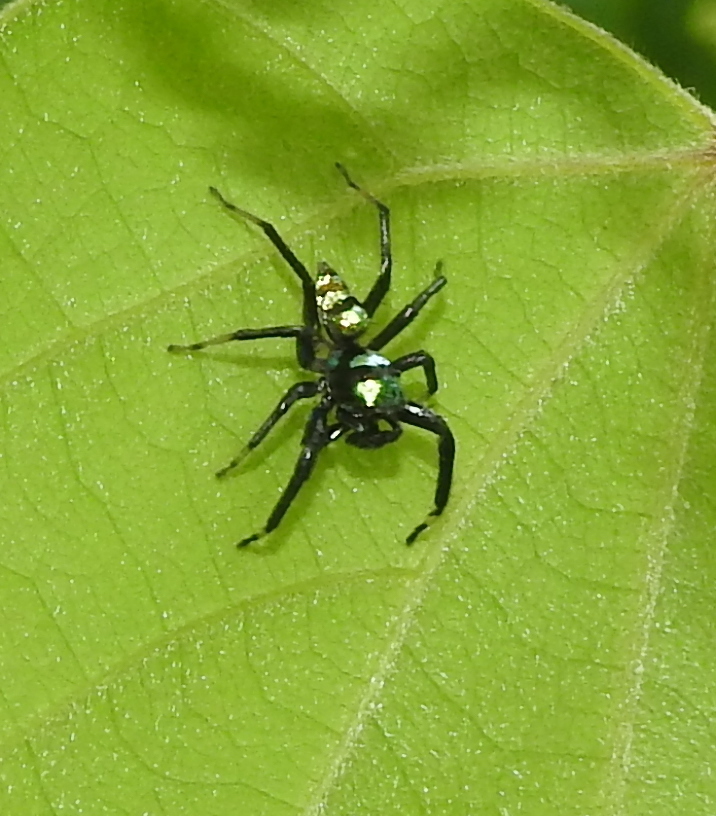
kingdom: Animalia
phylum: Arthropoda
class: Arachnida
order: Araneae
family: Salticidae
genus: Phintella
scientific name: Phintella vittata
